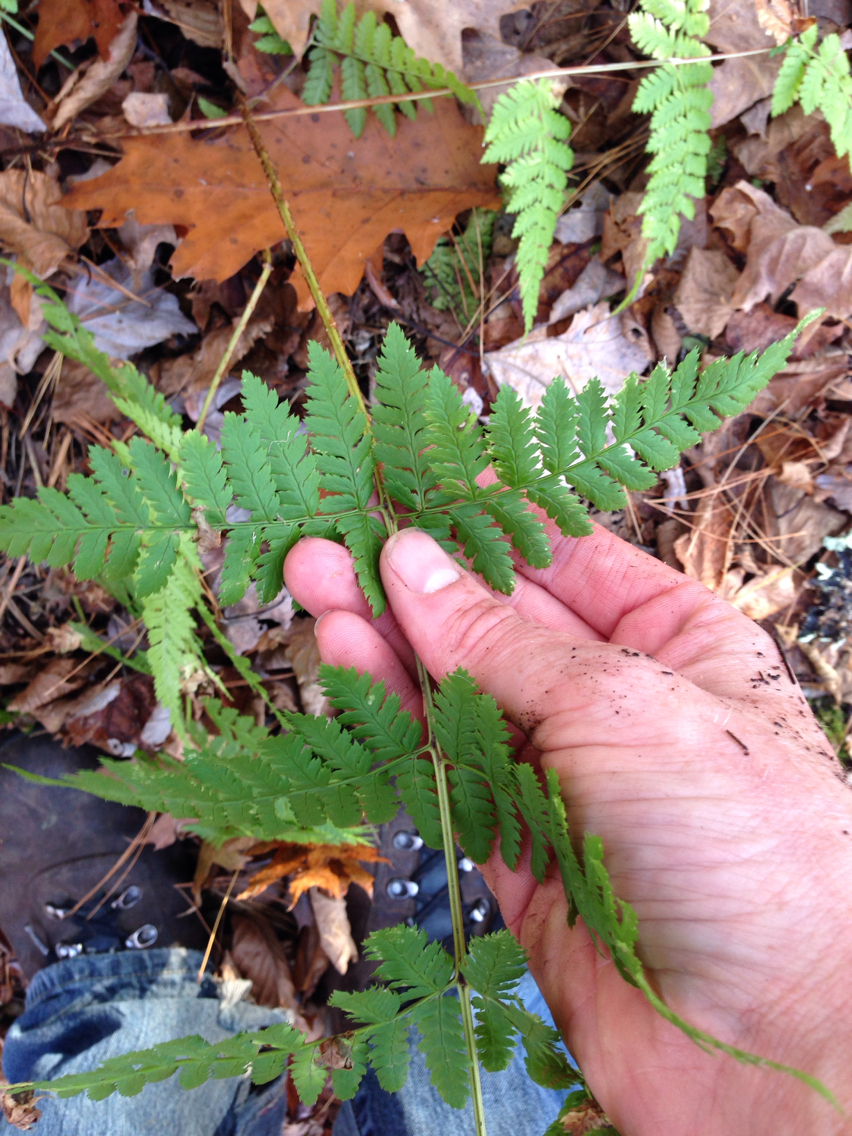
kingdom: Plantae
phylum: Tracheophyta
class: Polypodiopsida
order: Polypodiales
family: Dryopteridaceae
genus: Dryopteris
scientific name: Dryopteris carthusiana
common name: Narrow buckler-fern
